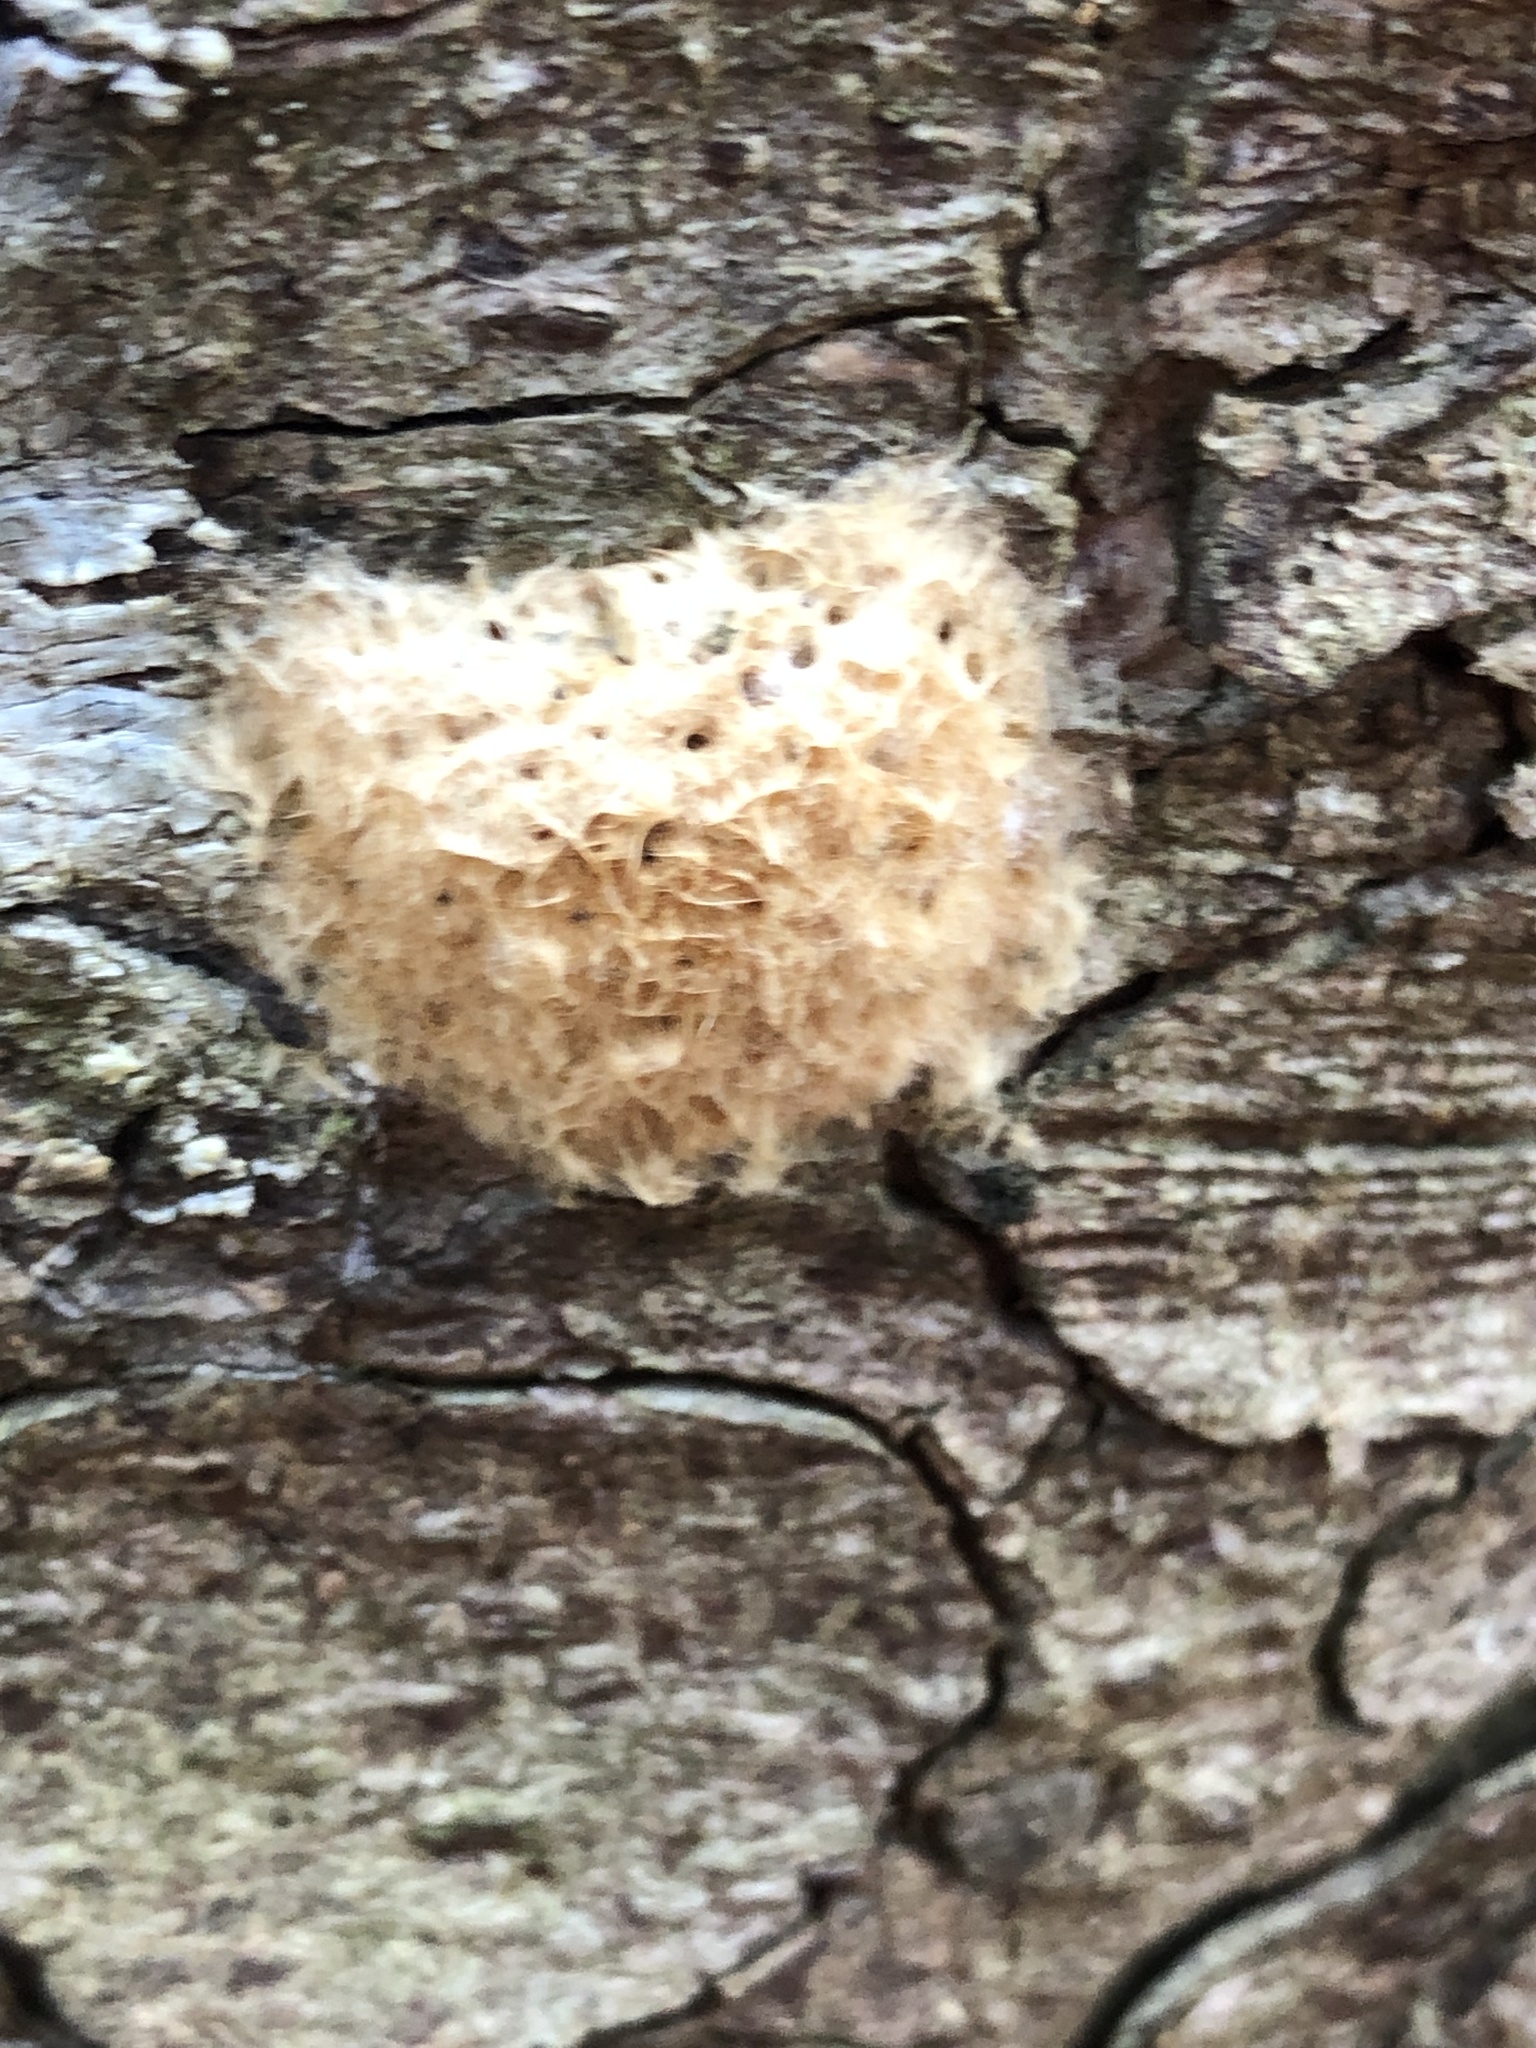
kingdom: Animalia
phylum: Arthropoda
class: Insecta
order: Lepidoptera
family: Erebidae
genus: Lymantria
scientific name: Lymantria dispar
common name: Gypsy moth
